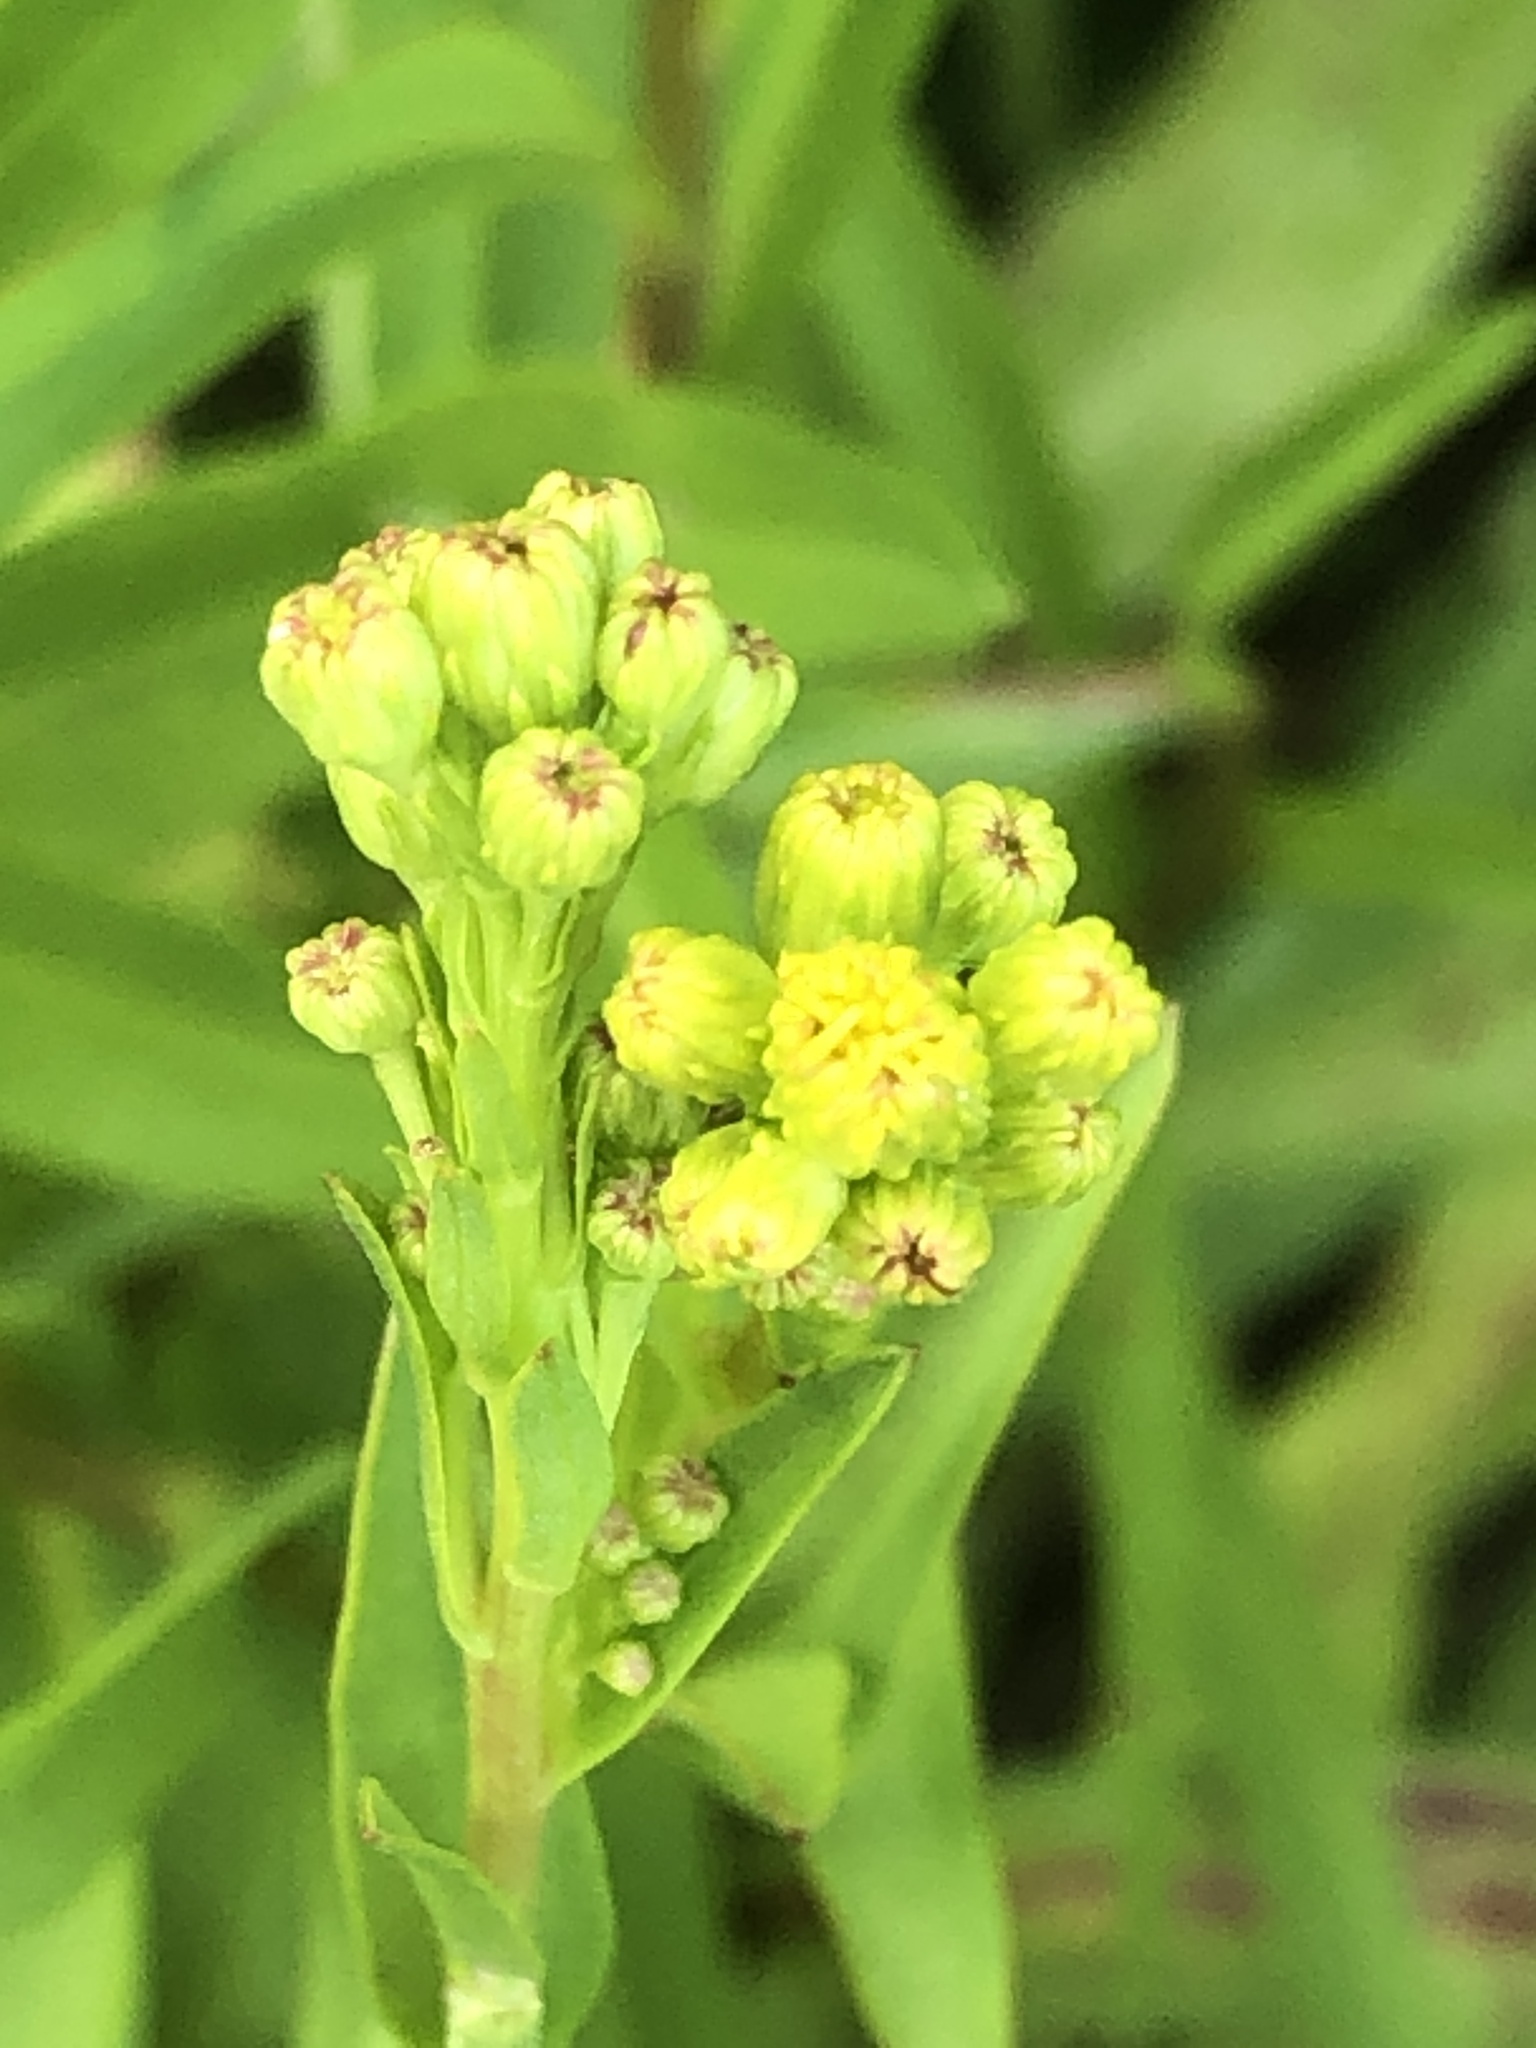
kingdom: Plantae
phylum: Tracheophyta
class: Magnoliopsida
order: Asterales
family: Asteraceae
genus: Solidago
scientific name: Solidago sempervirens
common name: Salt-marsh goldenrod
